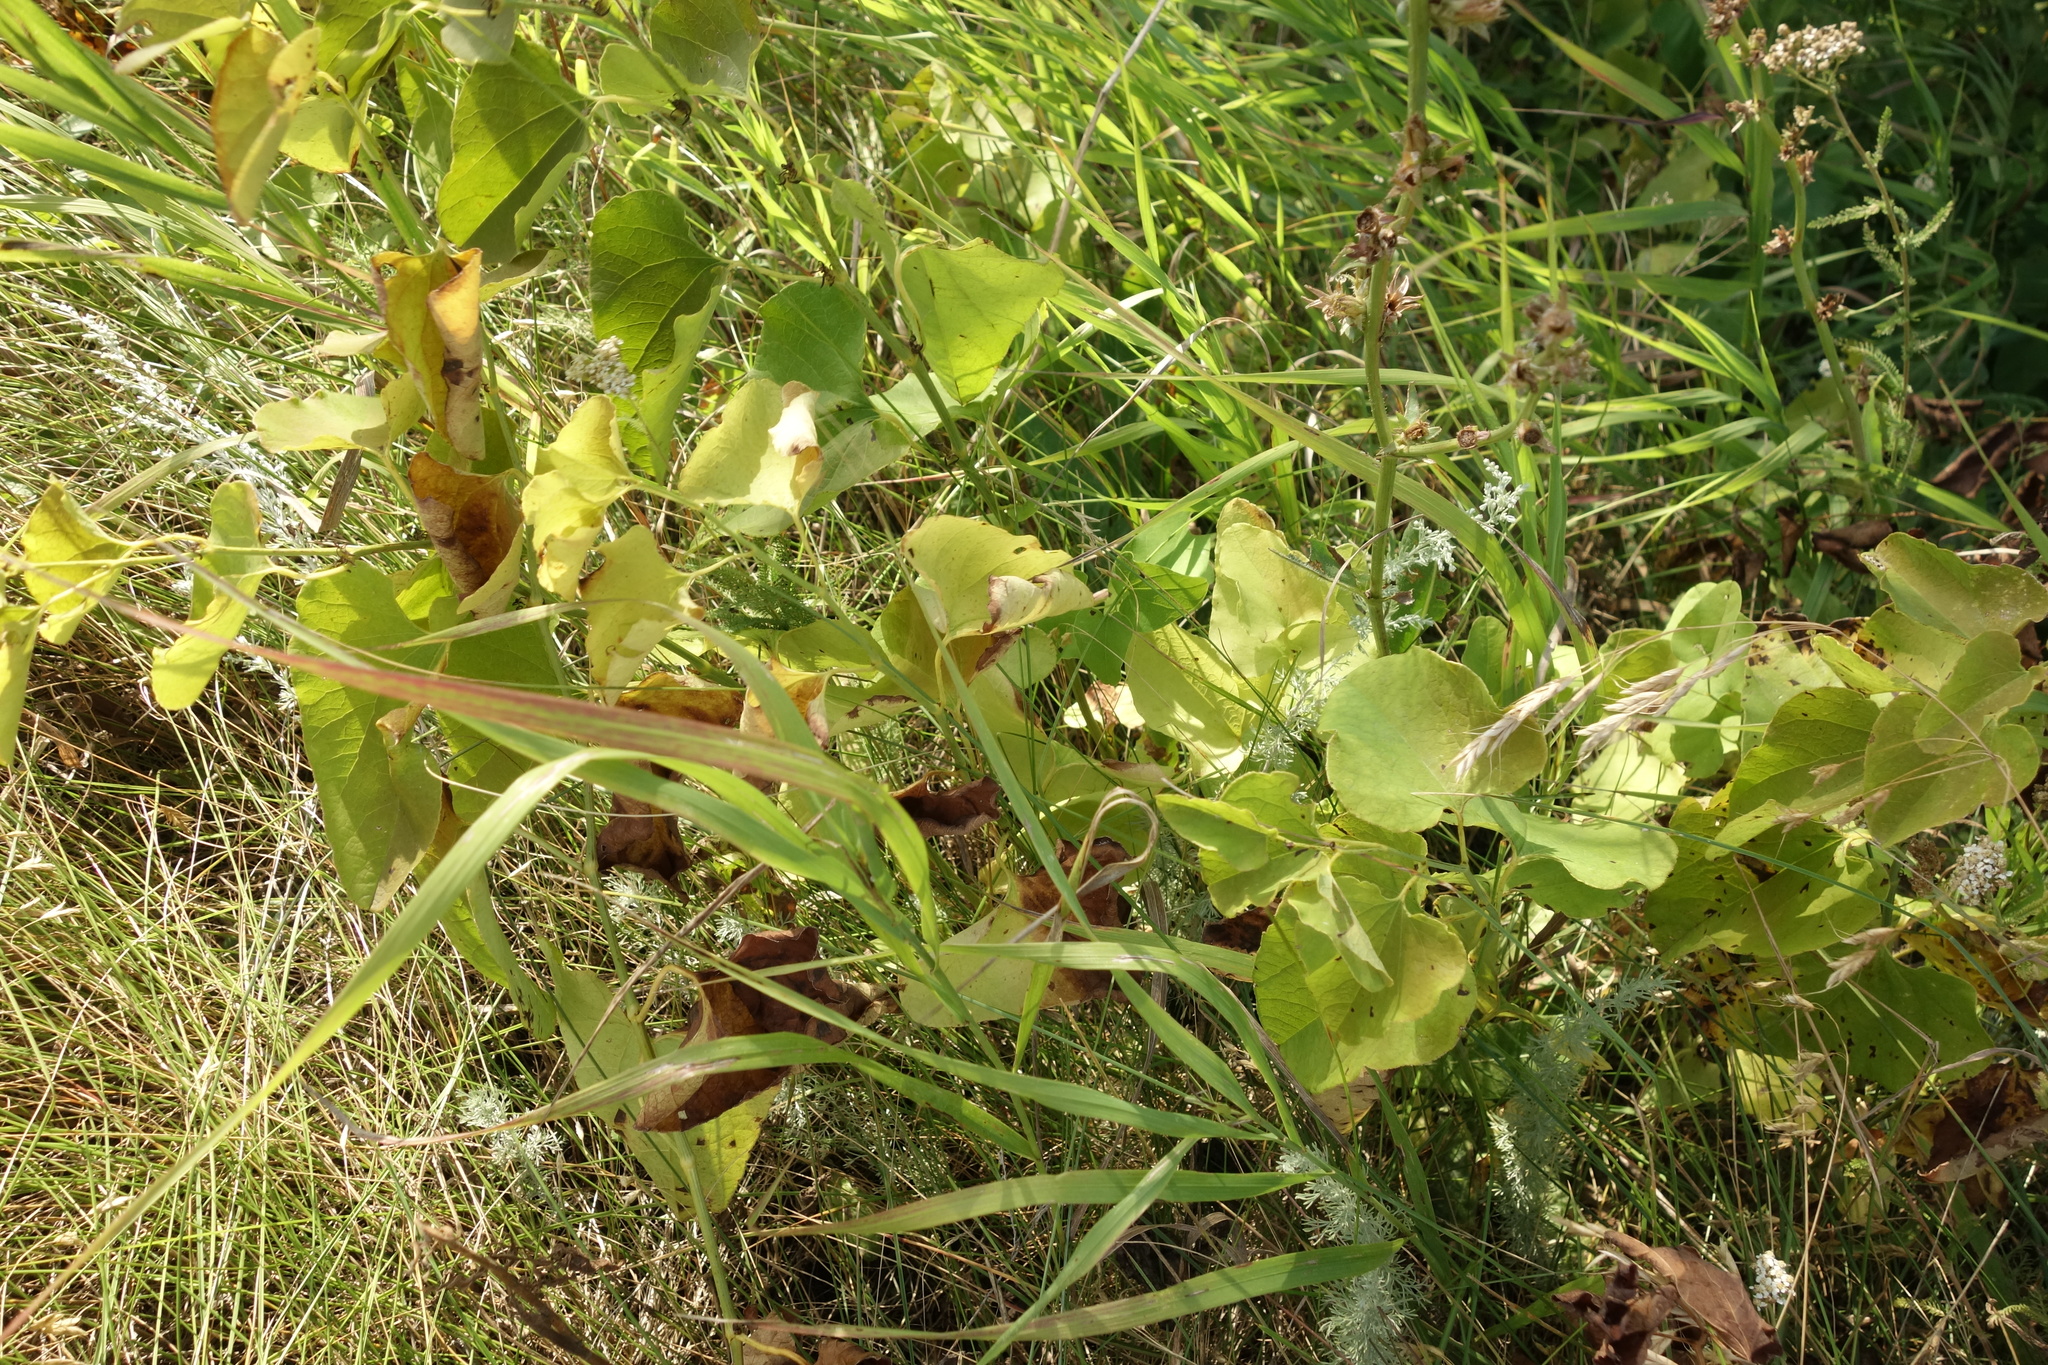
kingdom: Plantae
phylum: Tracheophyta
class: Magnoliopsida
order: Piperales
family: Aristolochiaceae
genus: Aristolochia
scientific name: Aristolochia clematitis
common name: Birthwort
